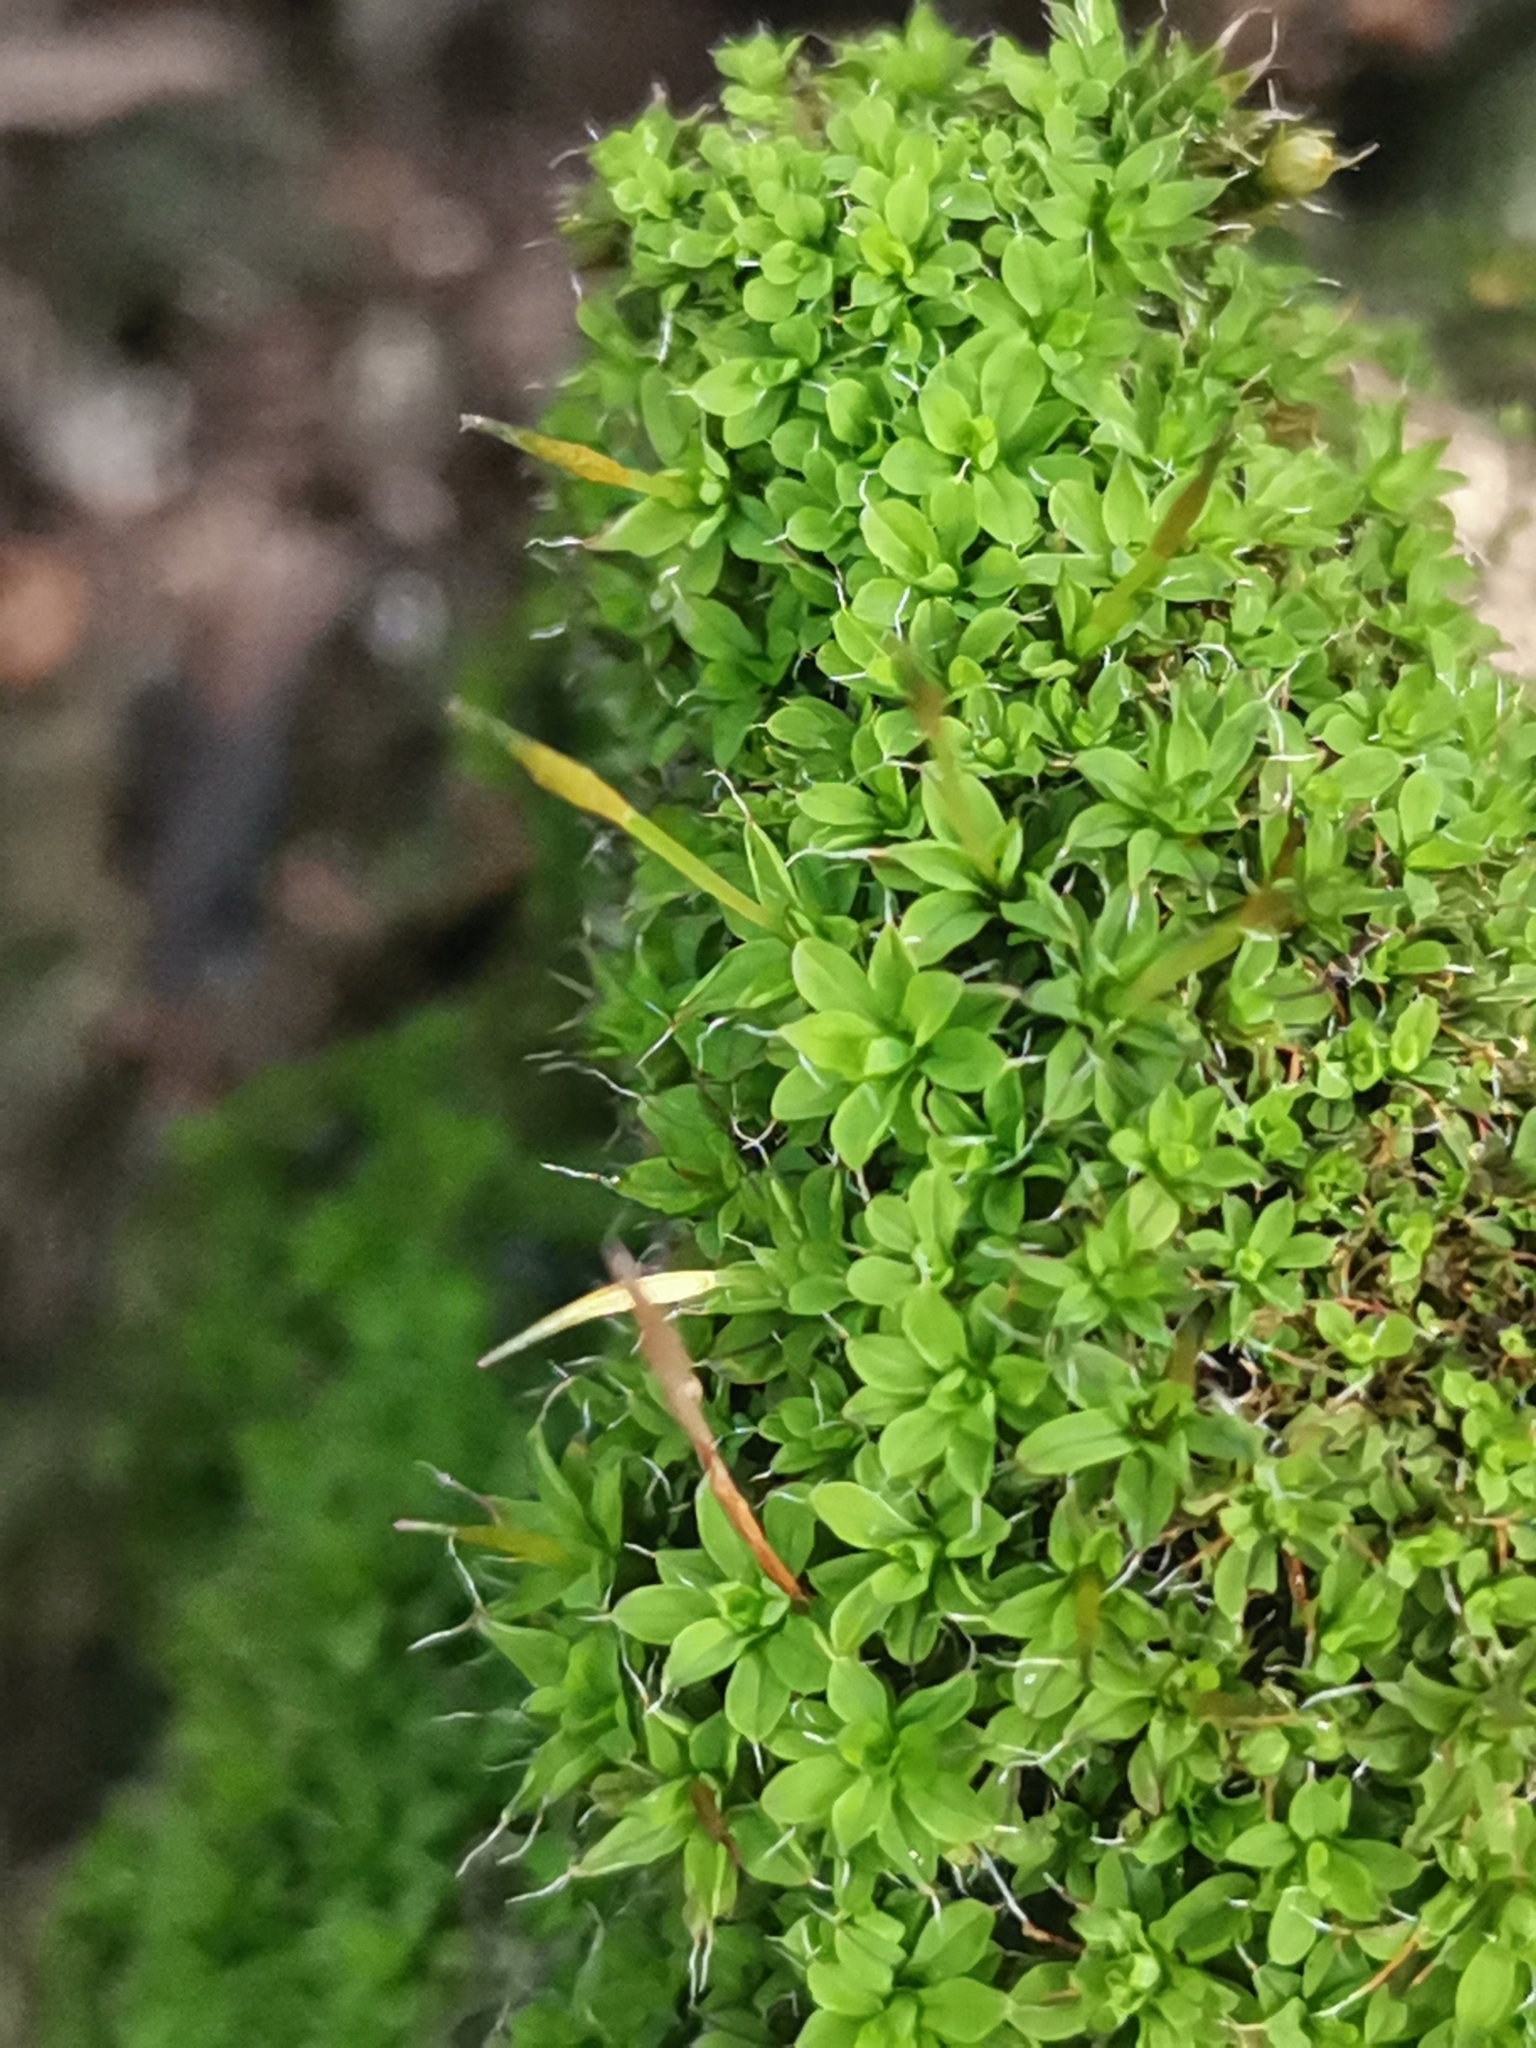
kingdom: Plantae
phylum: Bryophyta
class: Bryopsida
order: Pottiales
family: Pottiaceae
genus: Syntrichia
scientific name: Syntrichia laevipila
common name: Small hairy screw-moss
